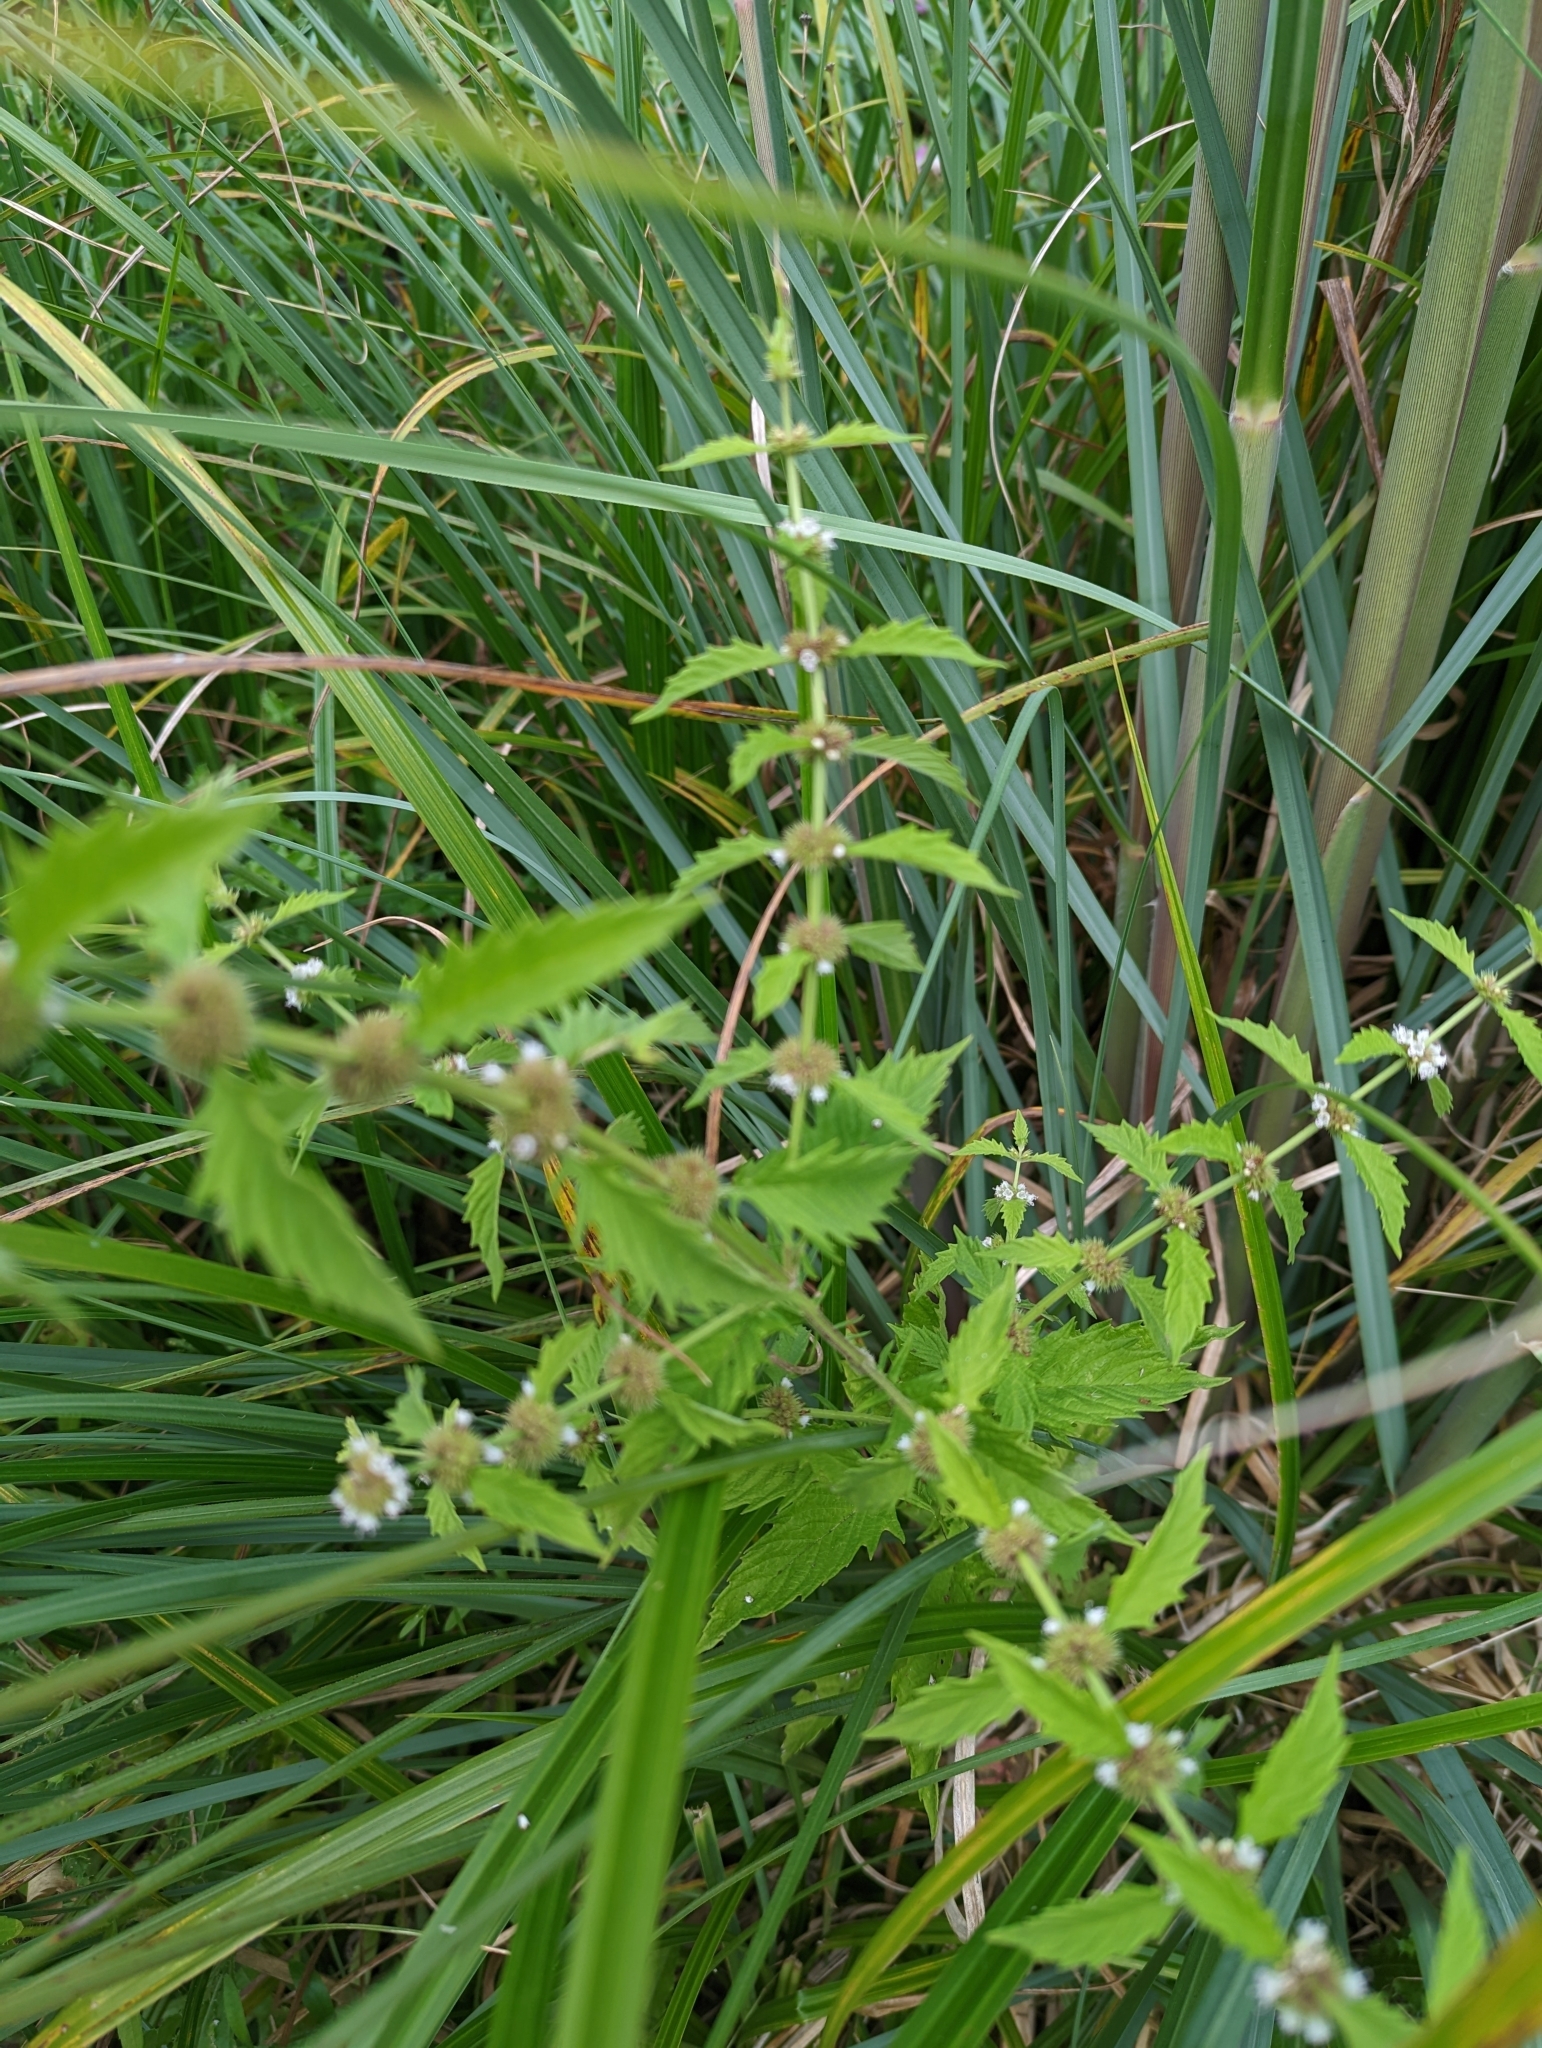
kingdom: Plantae
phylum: Tracheophyta
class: Magnoliopsida
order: Lamiales
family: Lamiaceae
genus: Lycopus
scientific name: Lycopus europaeus
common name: European bugleweed
